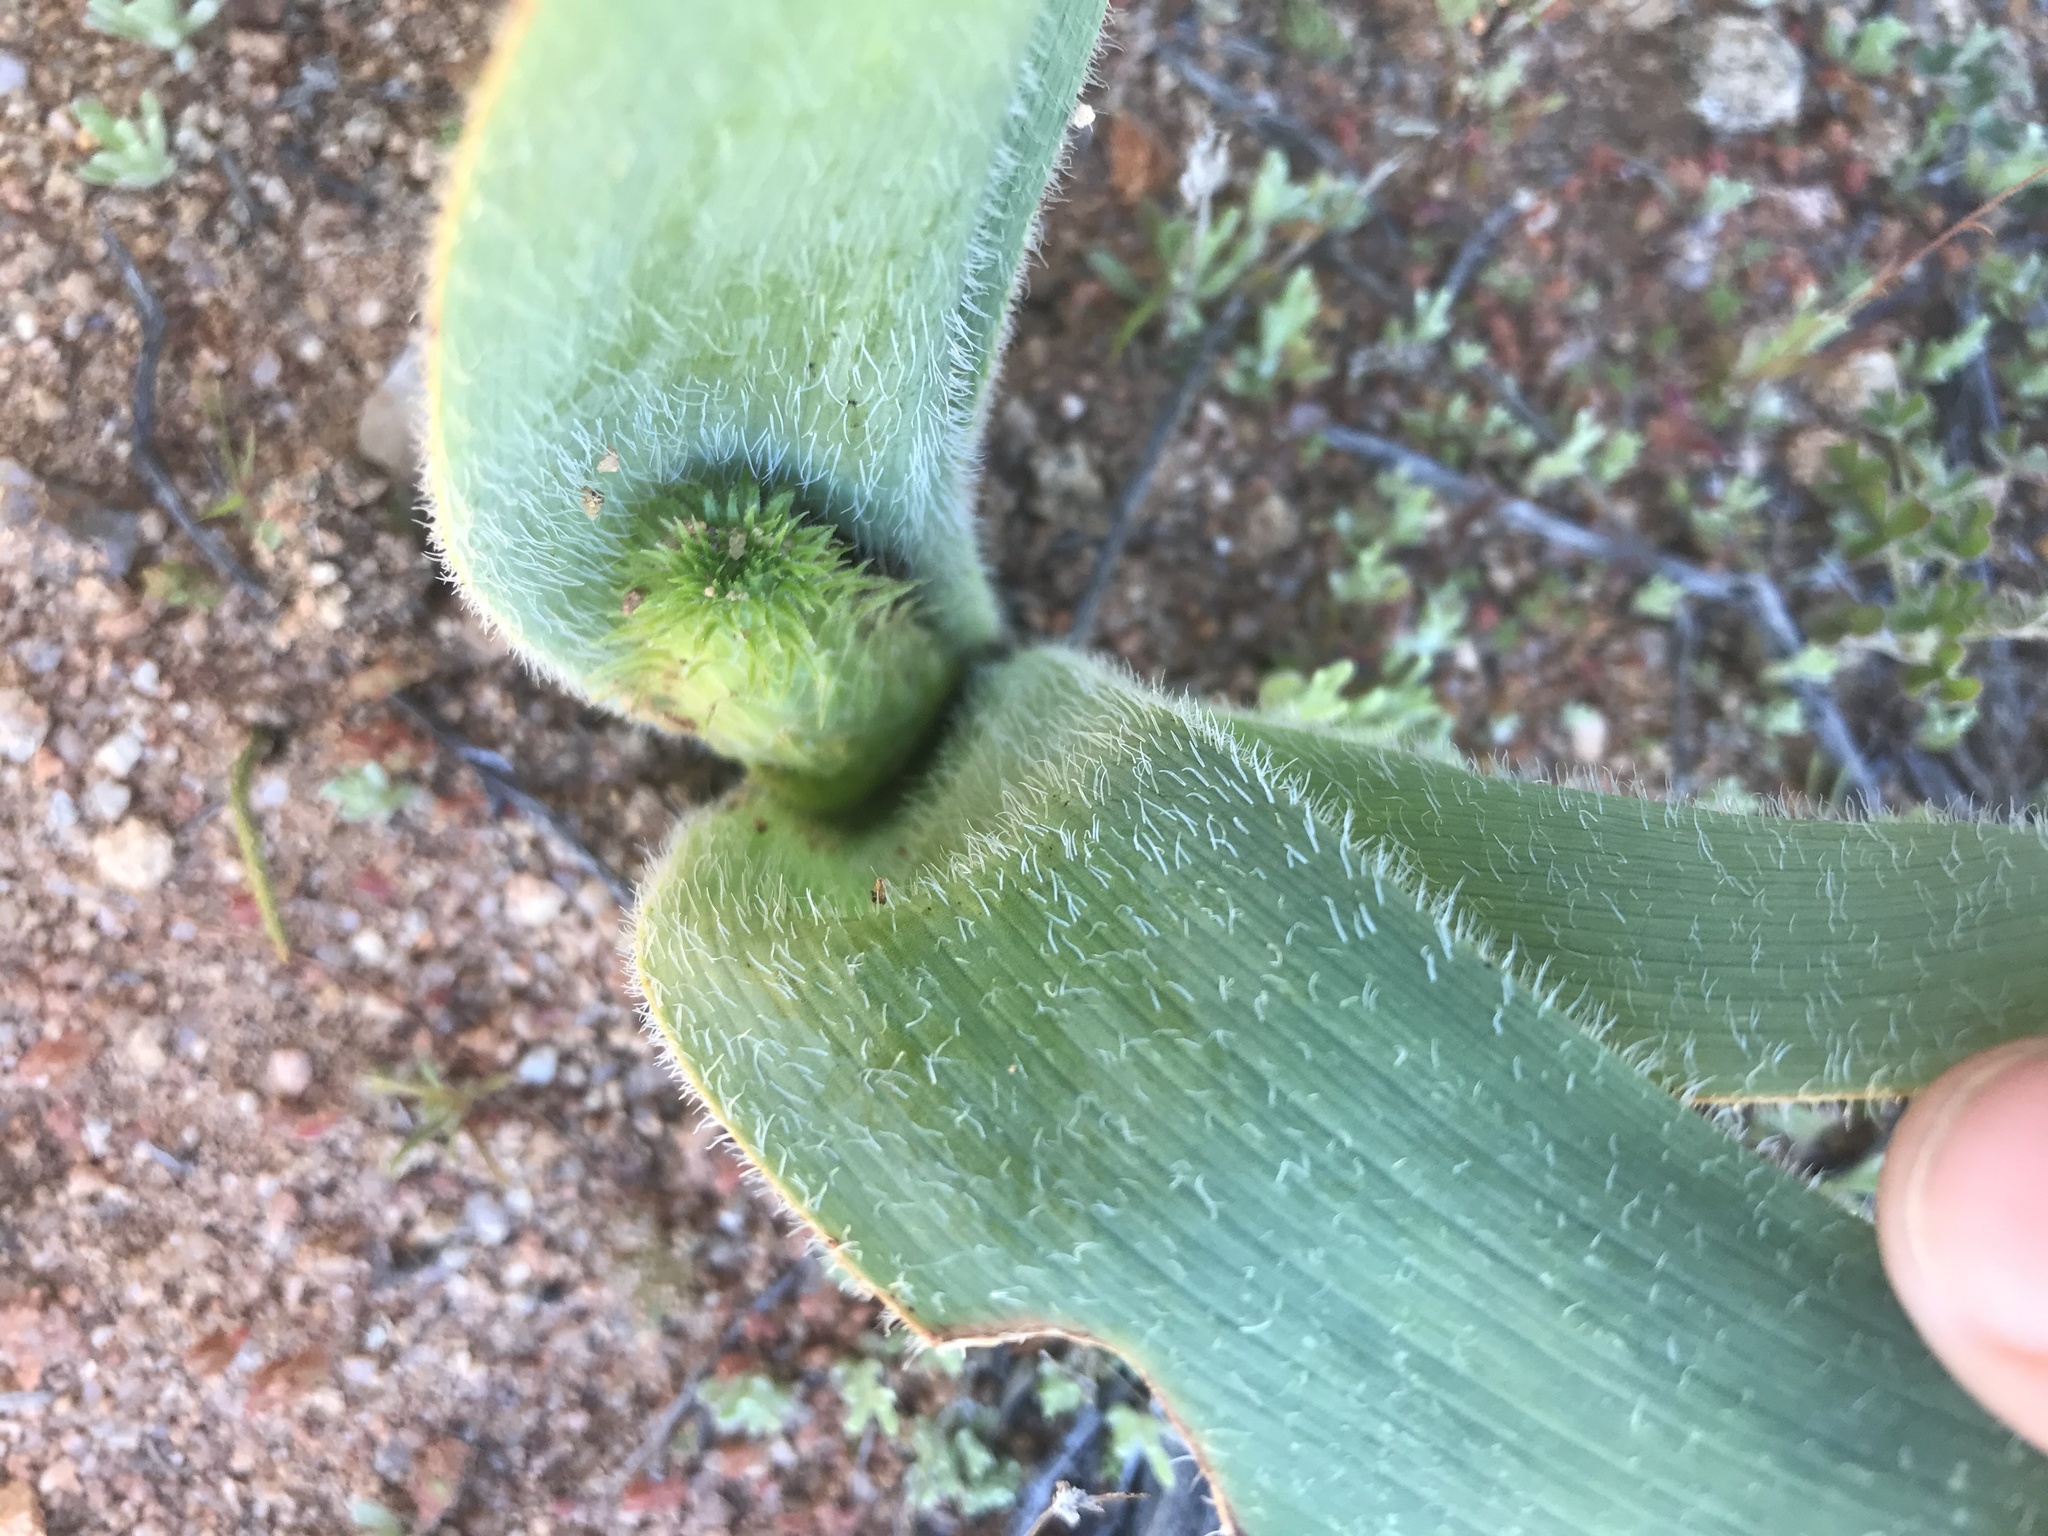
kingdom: Plantae
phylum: Tracheophyta
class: Liliopsida
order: Asparagales
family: Asphodelaceae
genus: Trachyandra
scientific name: Trachyandra falcata
